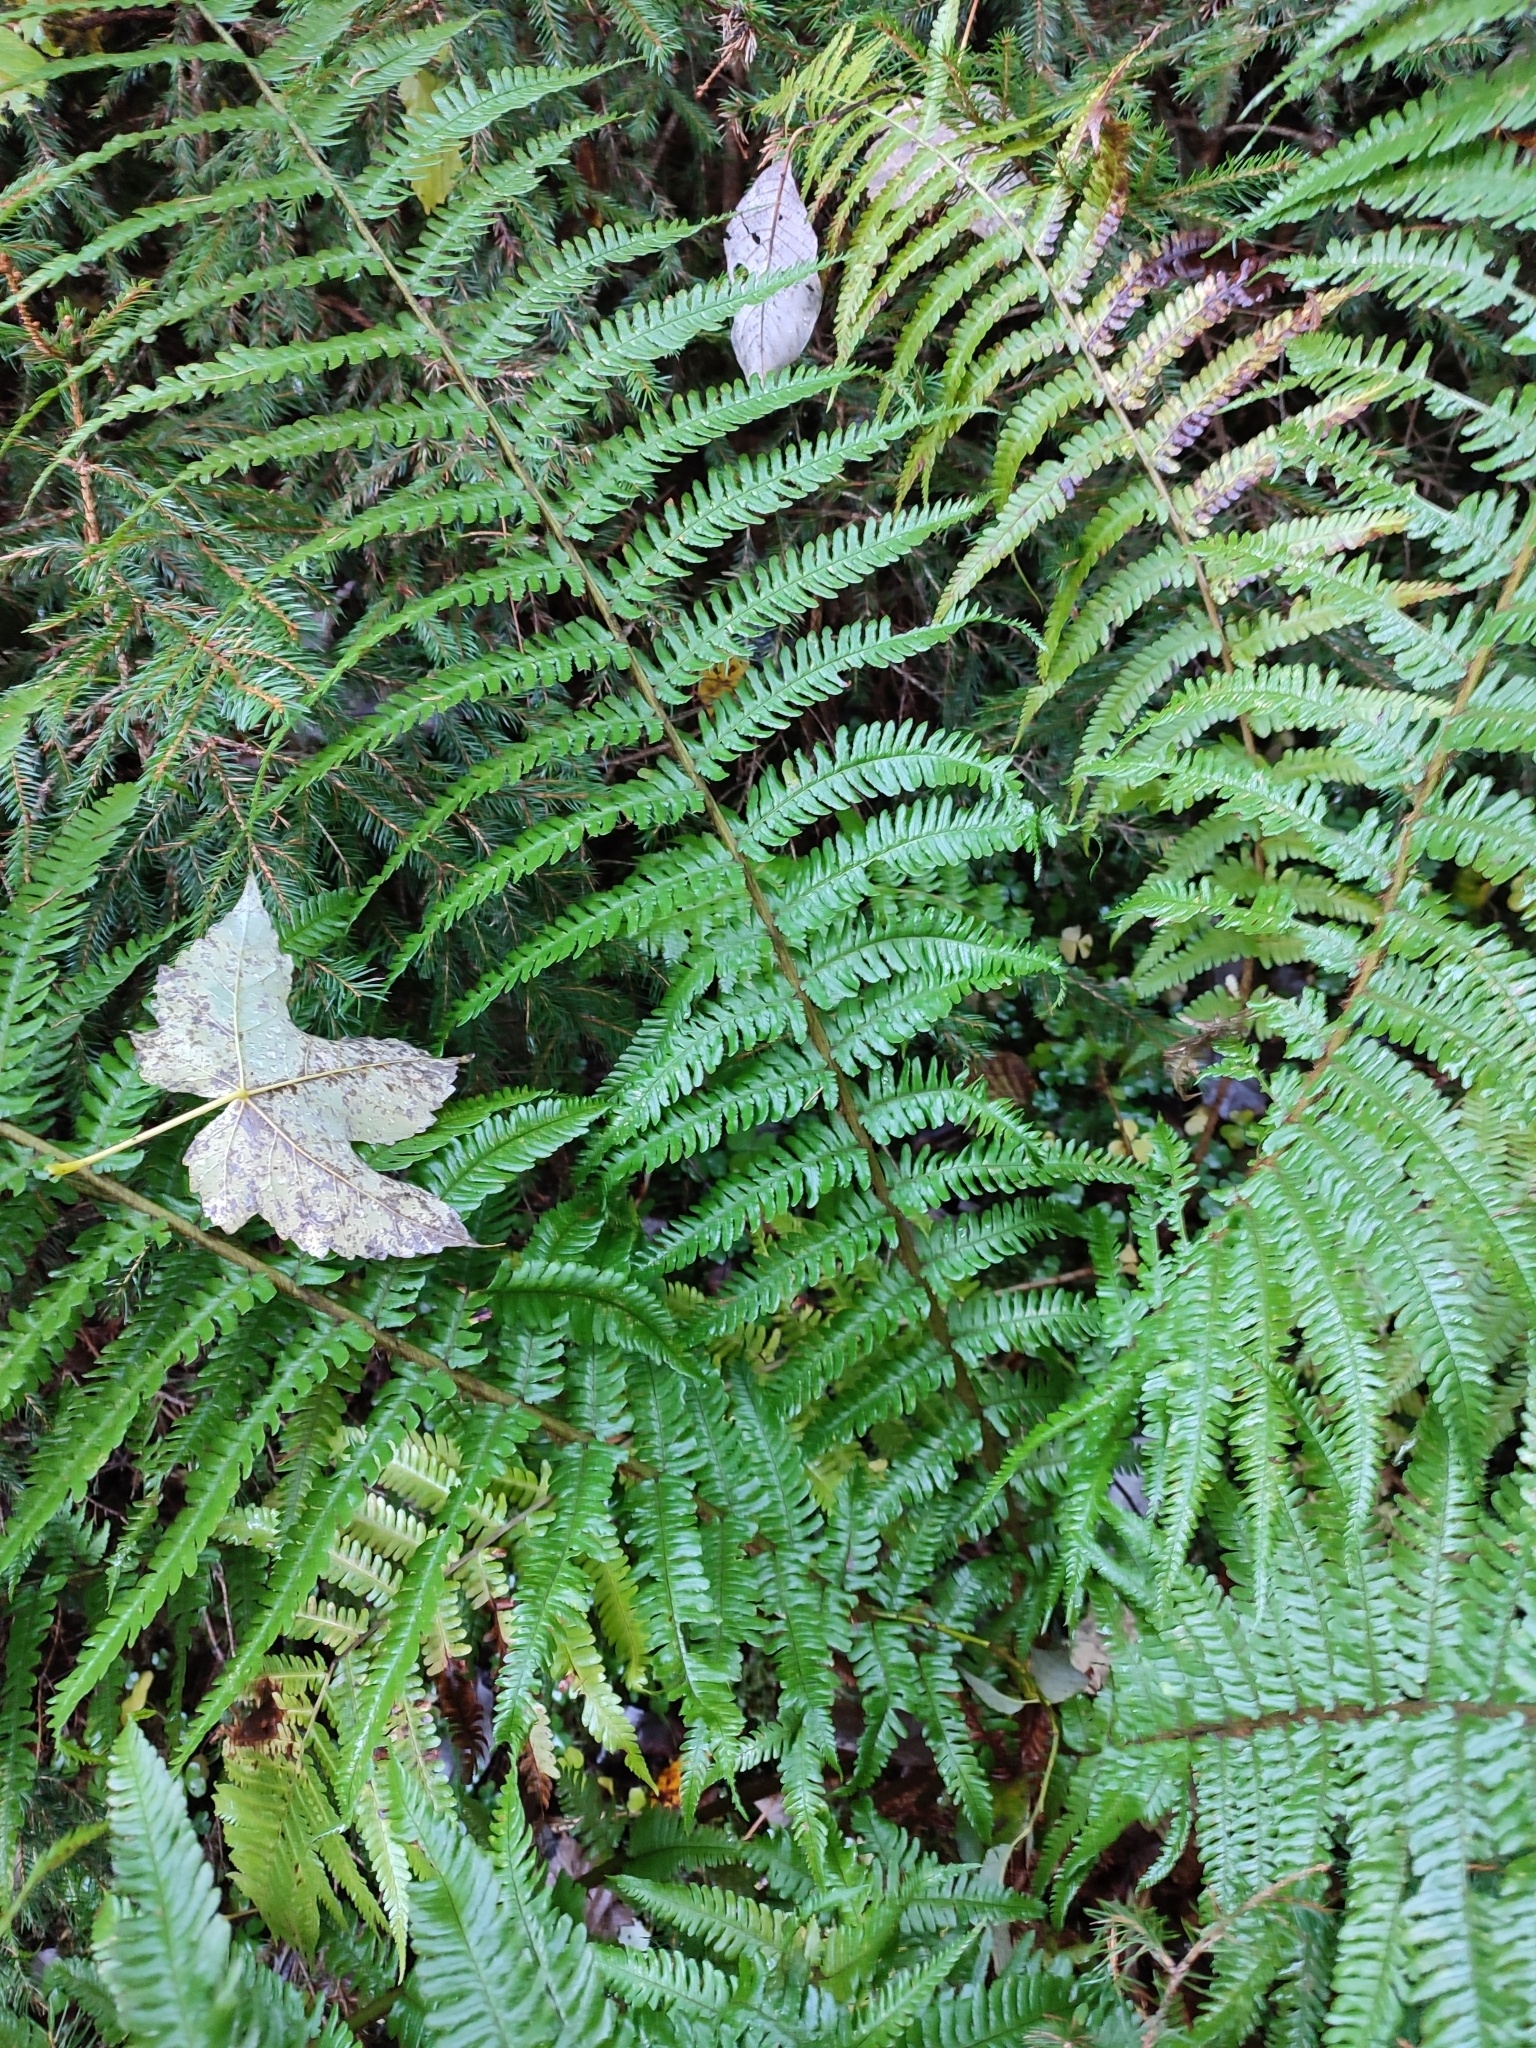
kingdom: Plantae
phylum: Tracheophyta
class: Polypodiopsida
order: Polypodiales
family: Dryopteridaceae
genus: Dryopteris
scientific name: Dryopteris borreri
